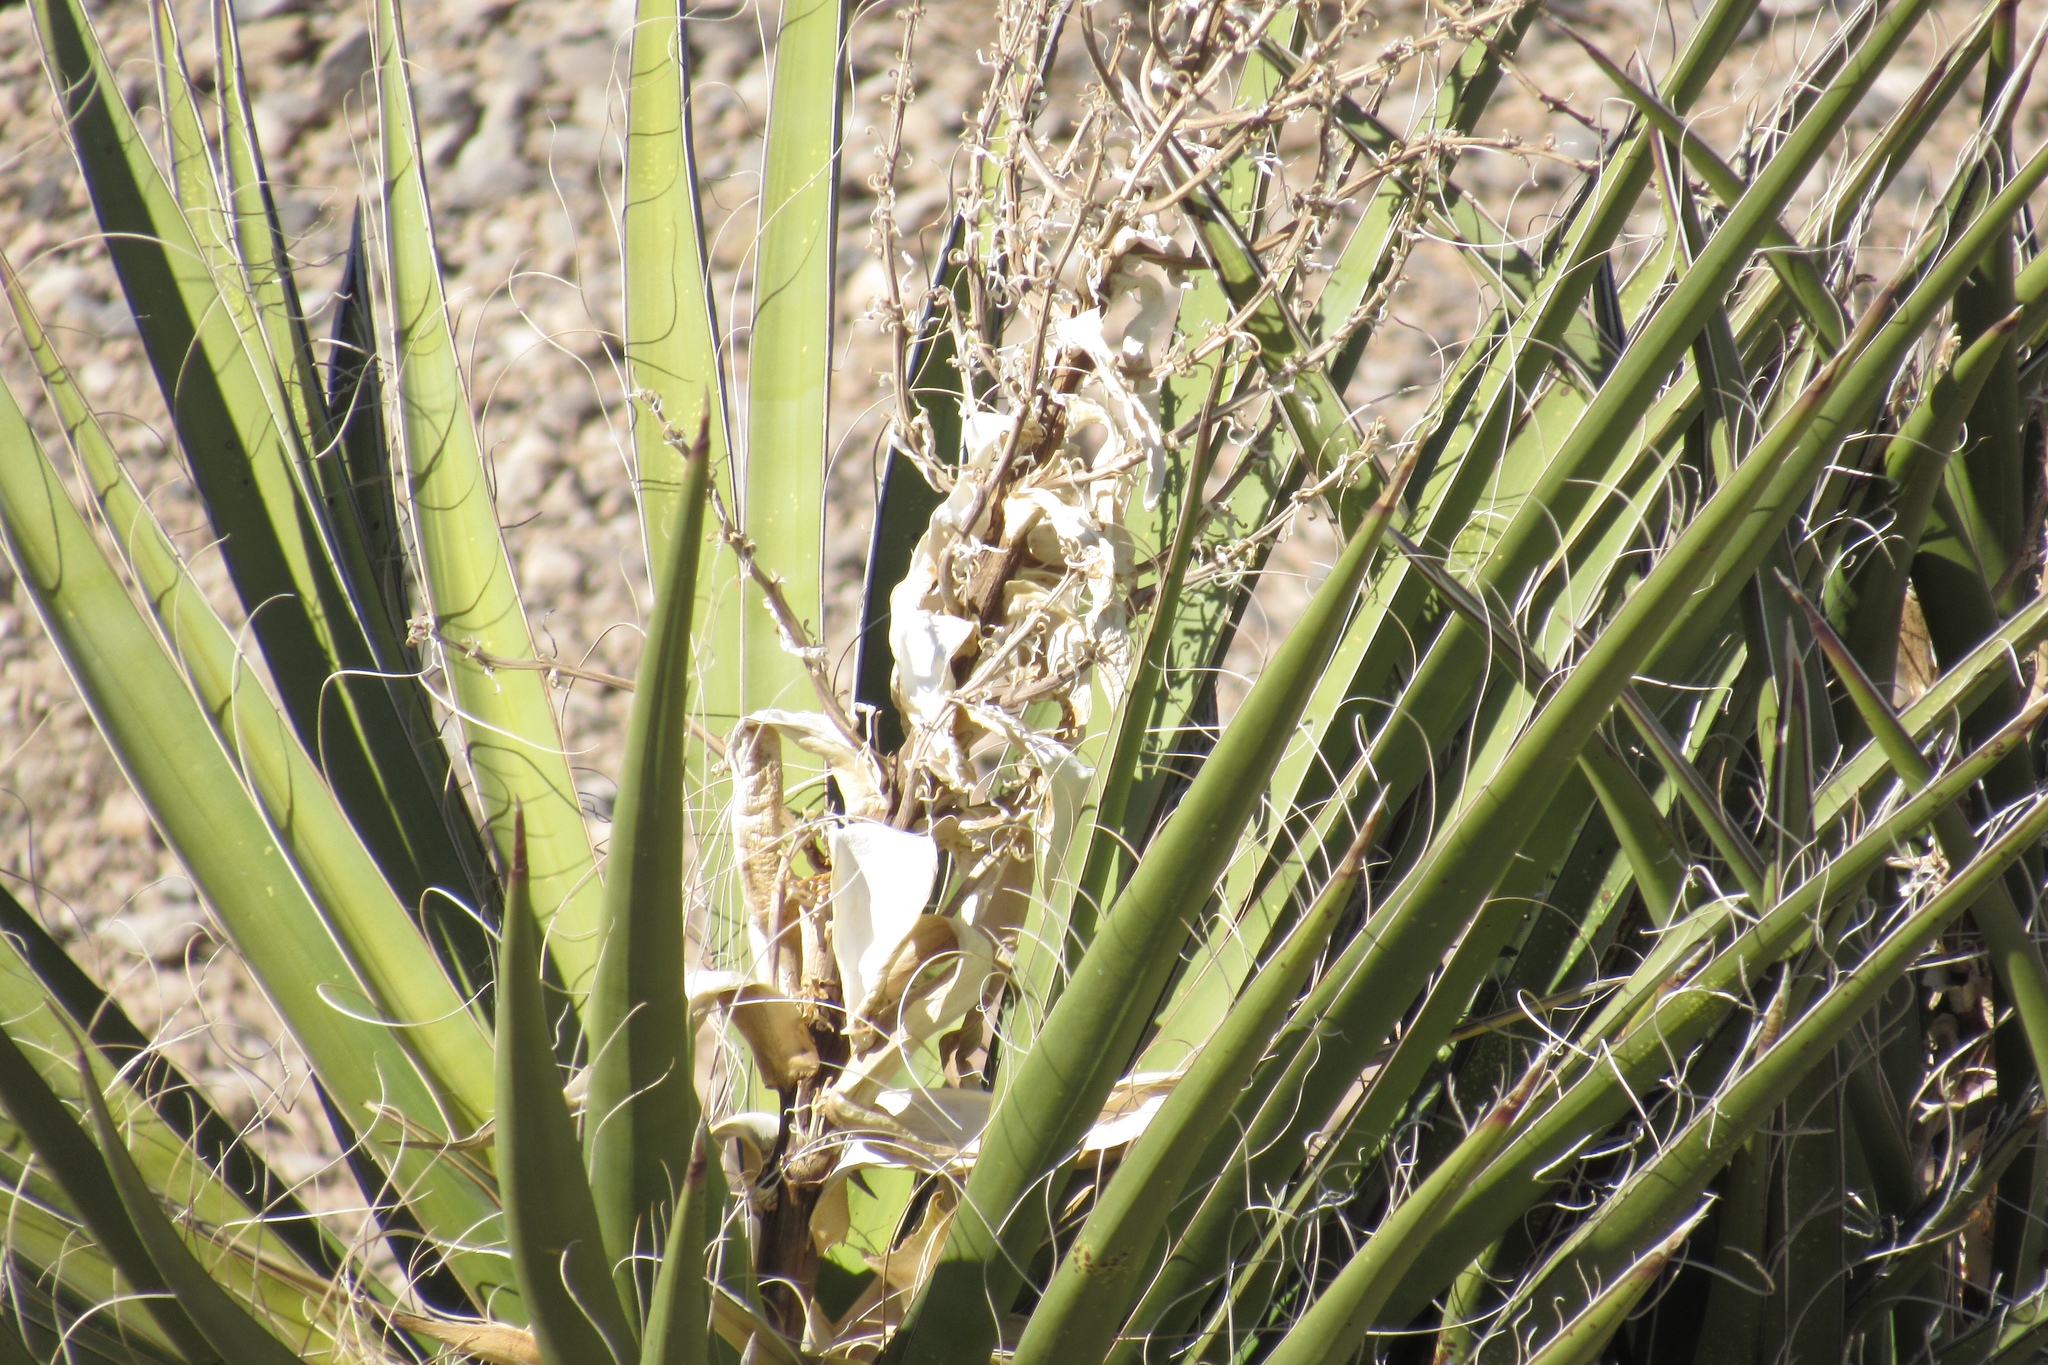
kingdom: Plantae
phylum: Tracheophyta
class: Liliopsida
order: Asparagales
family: Asparagaceae
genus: Yucca
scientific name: Yucca schidigera
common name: Mojave yucca
